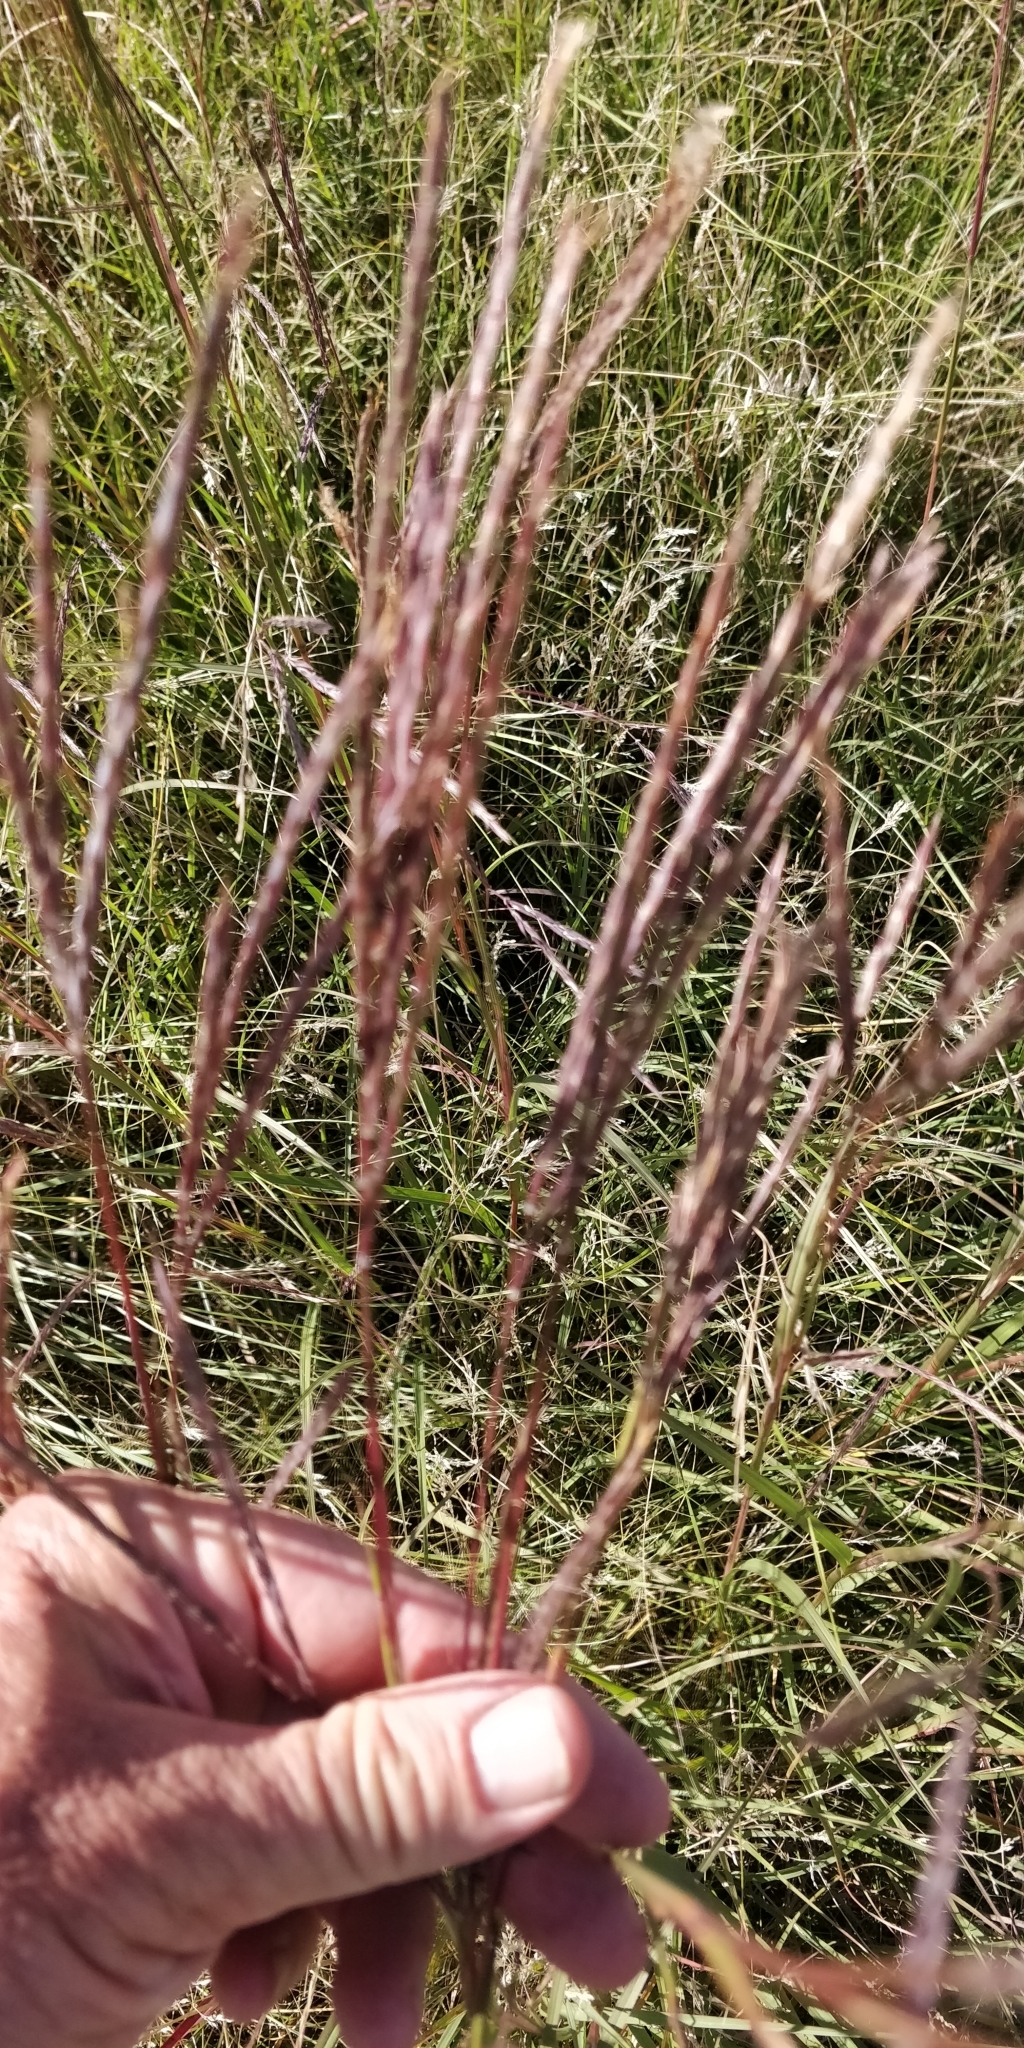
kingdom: Plantae
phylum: Tracheophyta
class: Liliopsida
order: Poales
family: Poaceae
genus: Andropogon
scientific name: Andropogon gerardi
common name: Big bluestem
